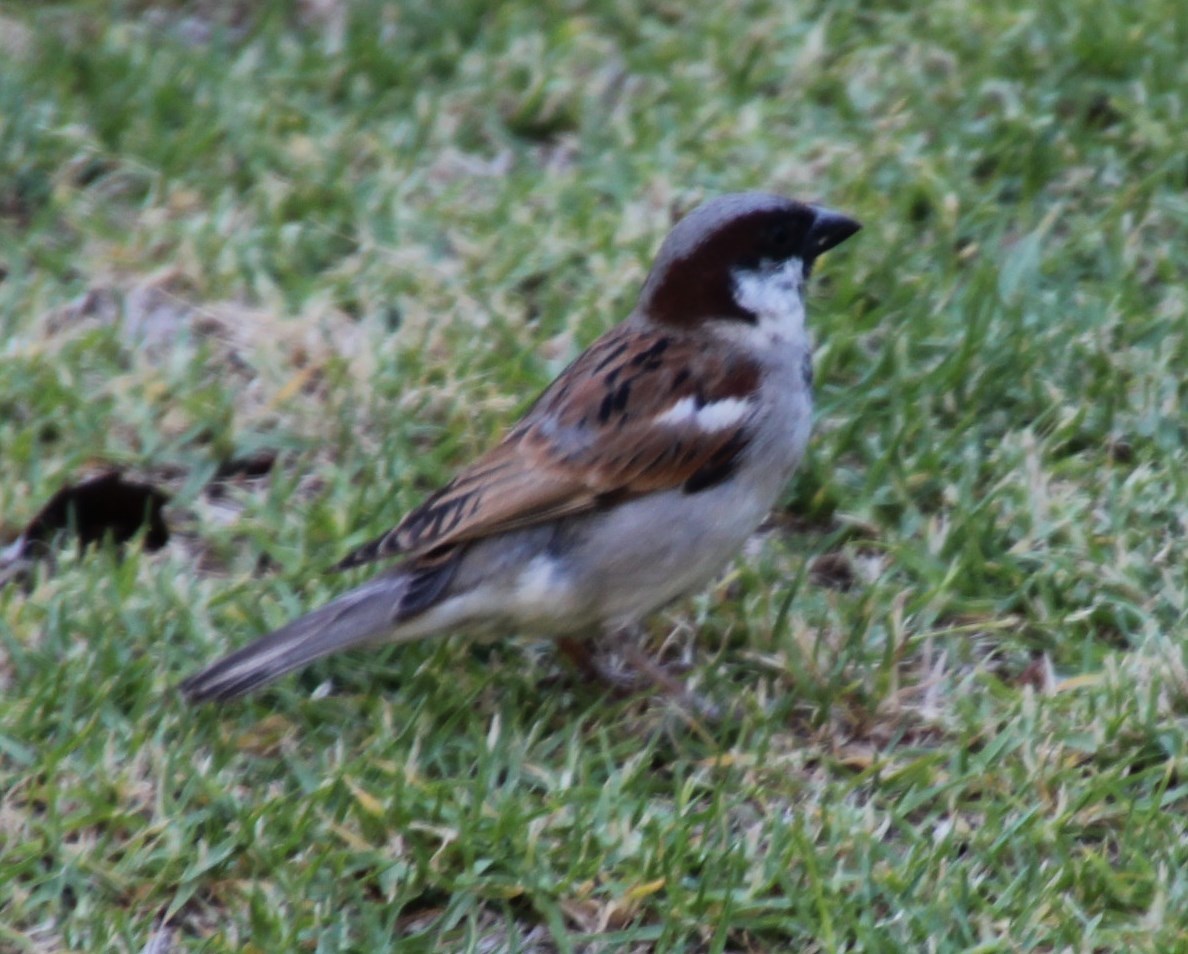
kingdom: Animalia
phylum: Chordata
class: Aves
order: Passeriformes
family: Passeridae
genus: Passer
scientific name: Passer domesticus
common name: House sparrow
